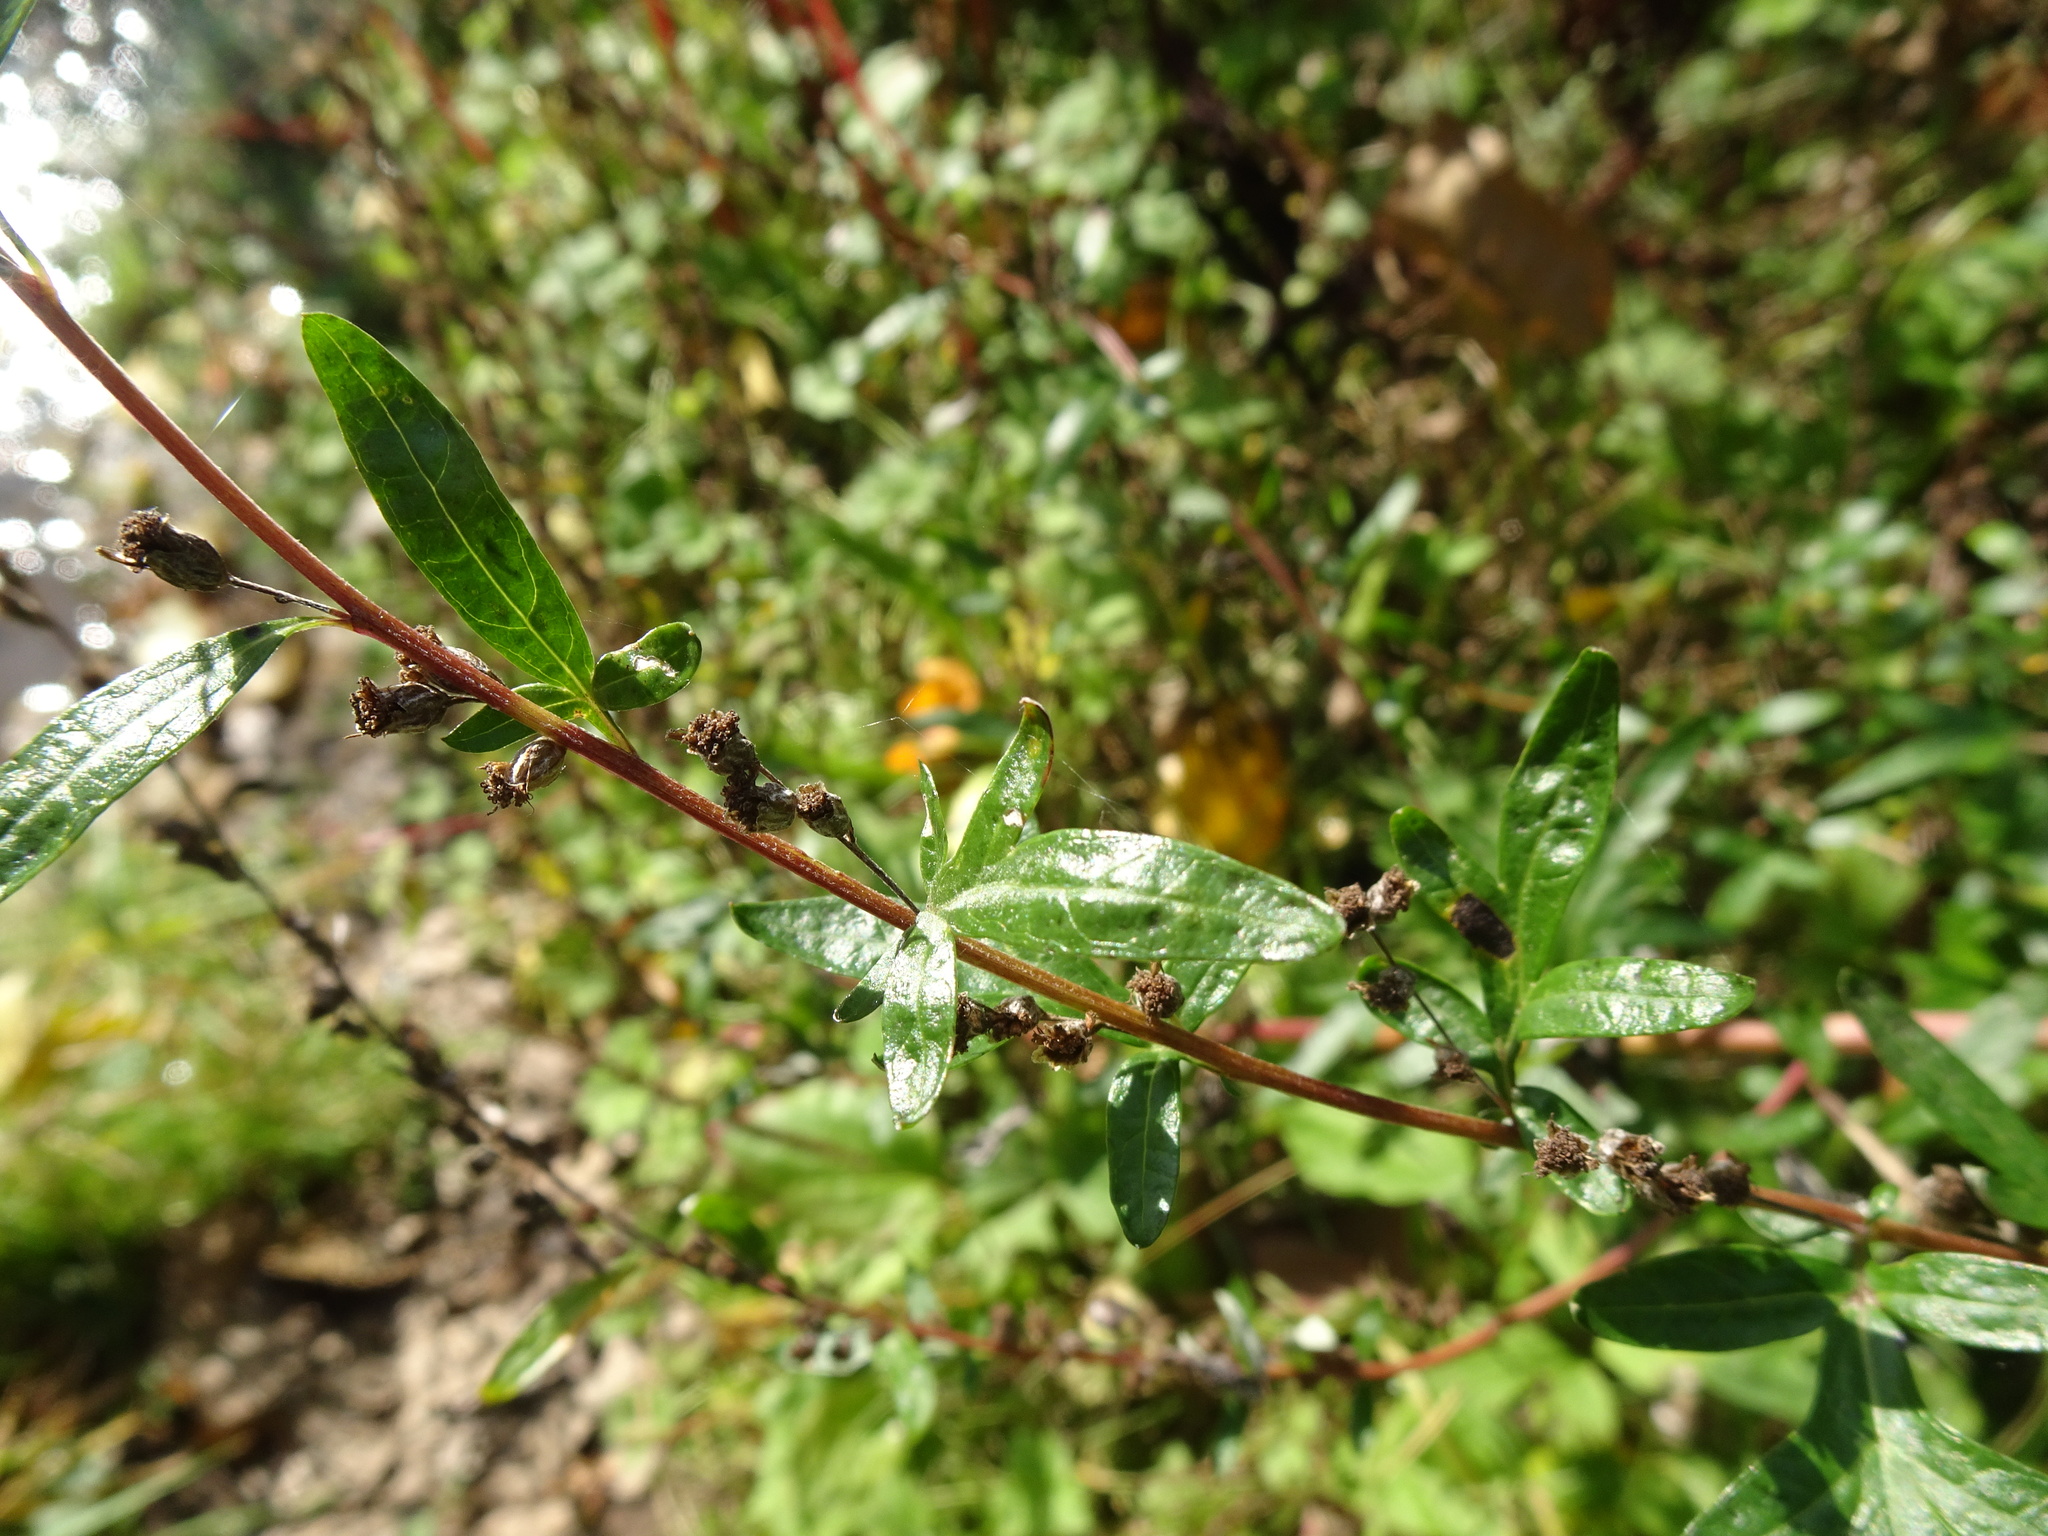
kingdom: Plantae
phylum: Tracheophyta
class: Magnoliopsida
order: Asterales
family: Asteraceae
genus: Artemisia
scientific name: Artemisia vulgaris
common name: Mugwort
